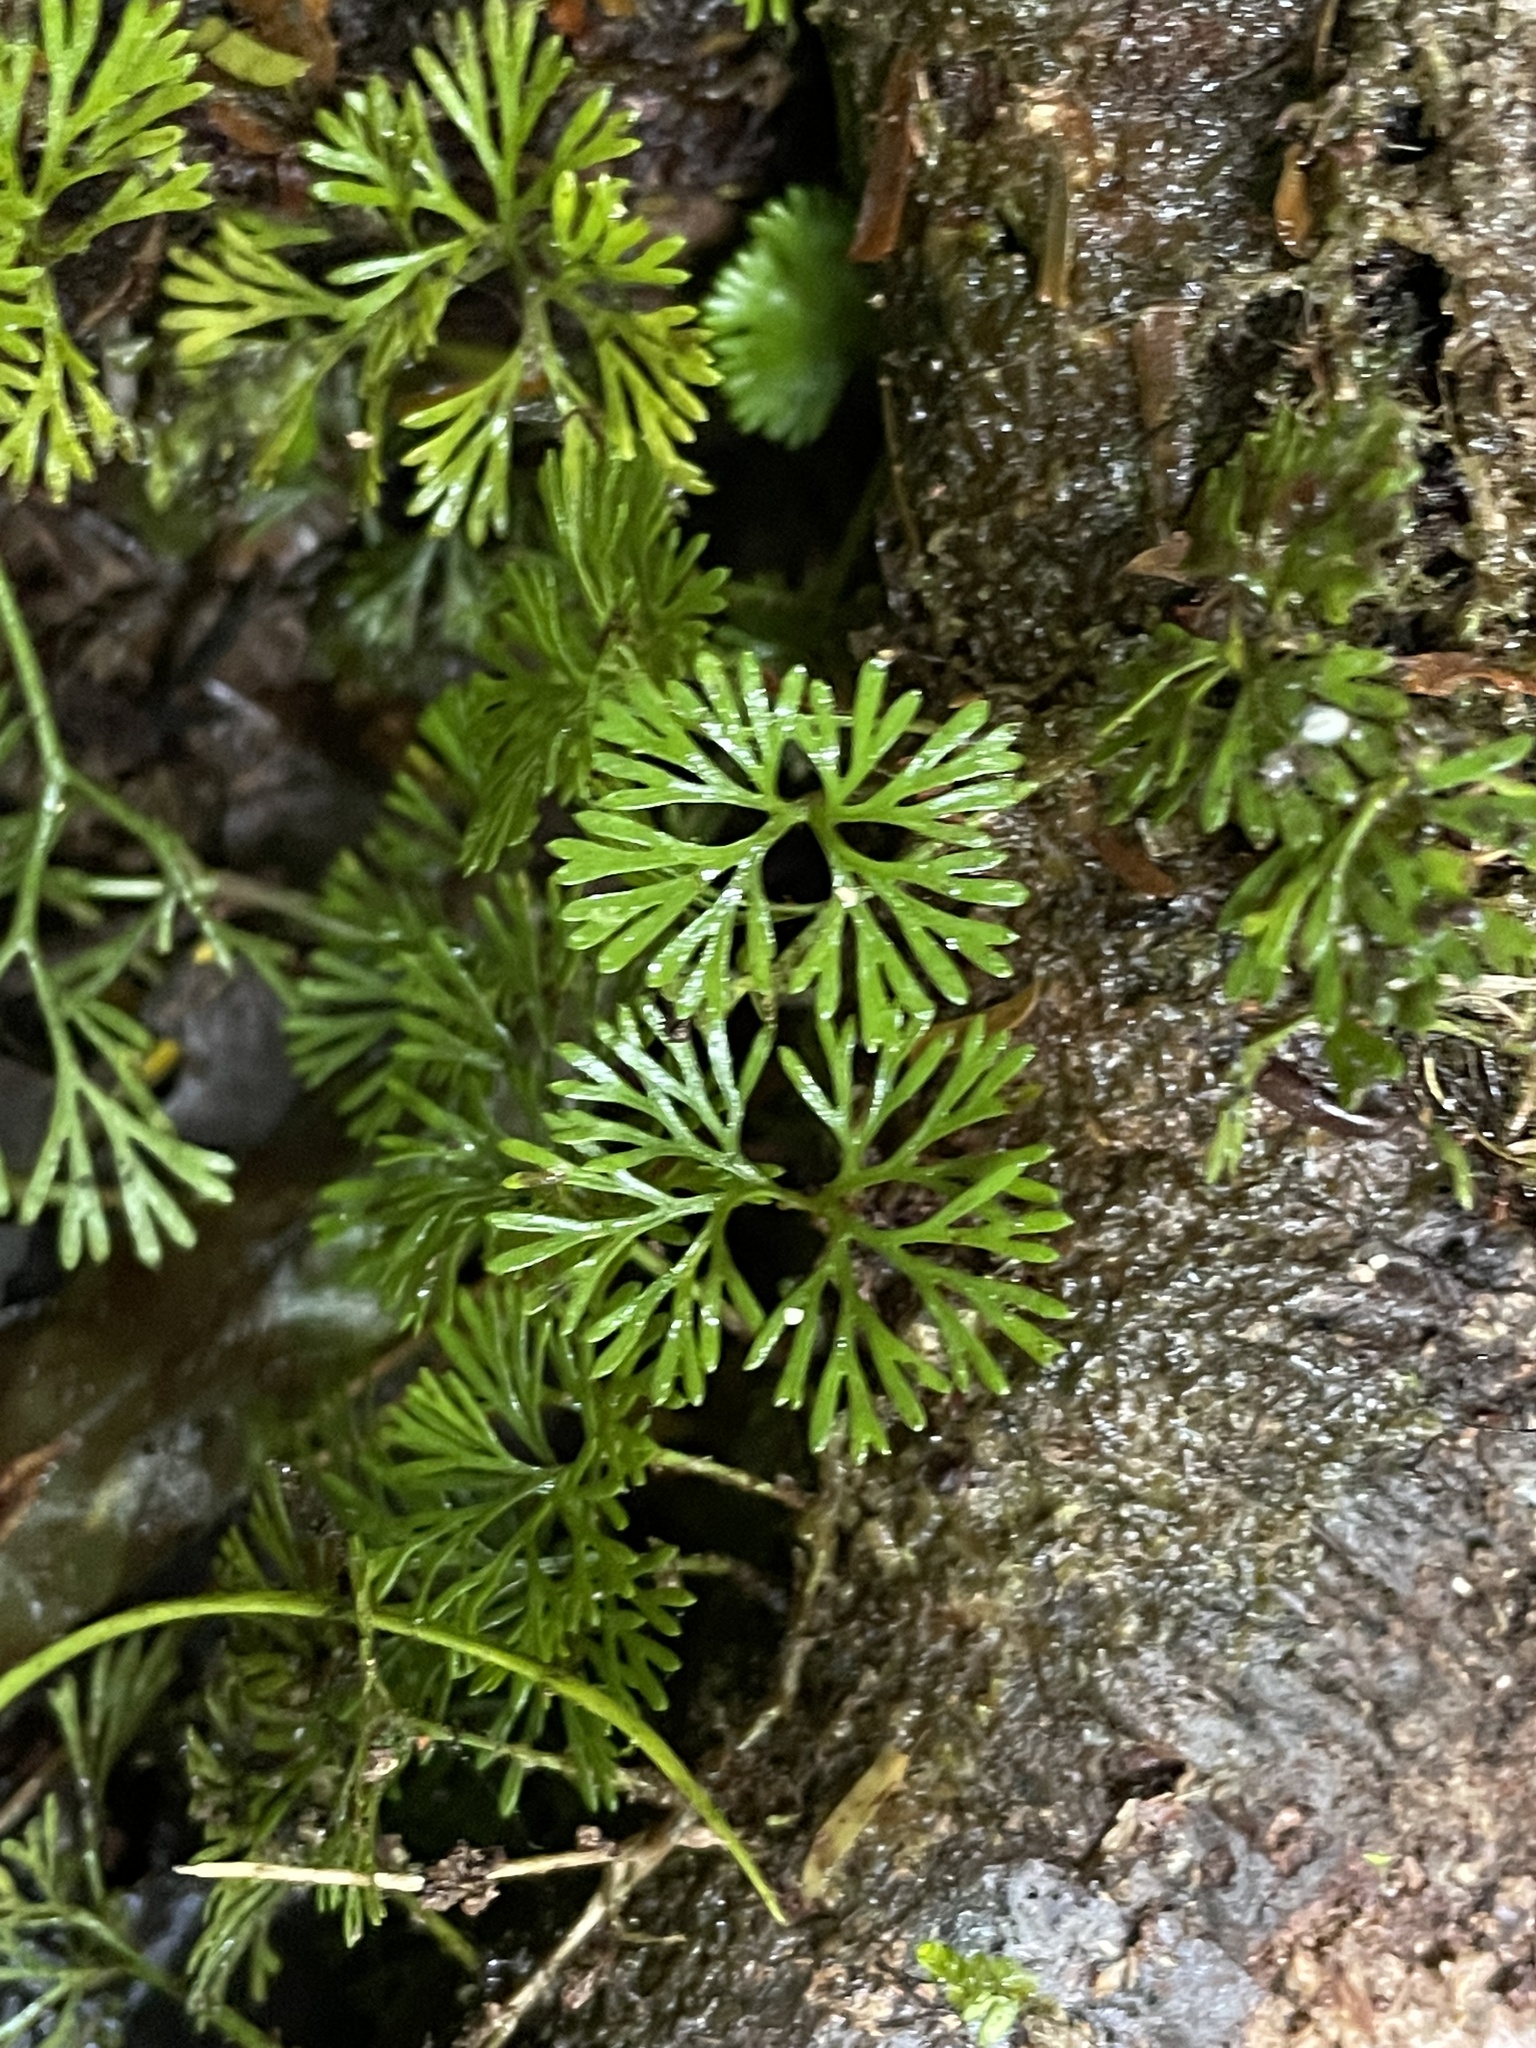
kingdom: Plantae
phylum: Tracheophyta
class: Polypodiopsida
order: Polypodiales
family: Dryopteridaceae
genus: Elaphoglossum
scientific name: Elaphoglossum peltatum
